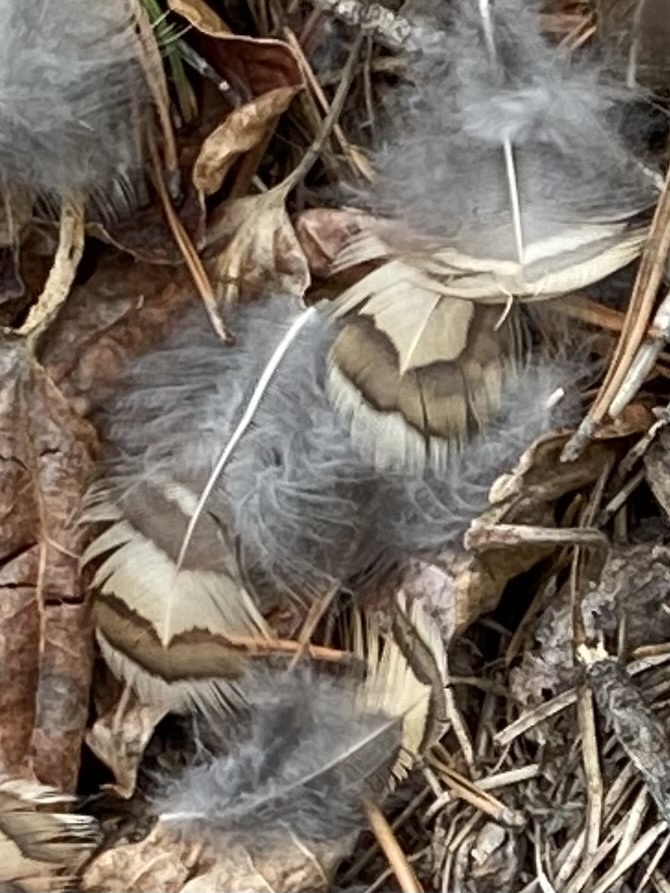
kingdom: Animalia
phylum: Chordata
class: Aves
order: Galliformes
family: Phasianidae
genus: Bonasa
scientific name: Bonasa umbellus
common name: Ruffed grouse
